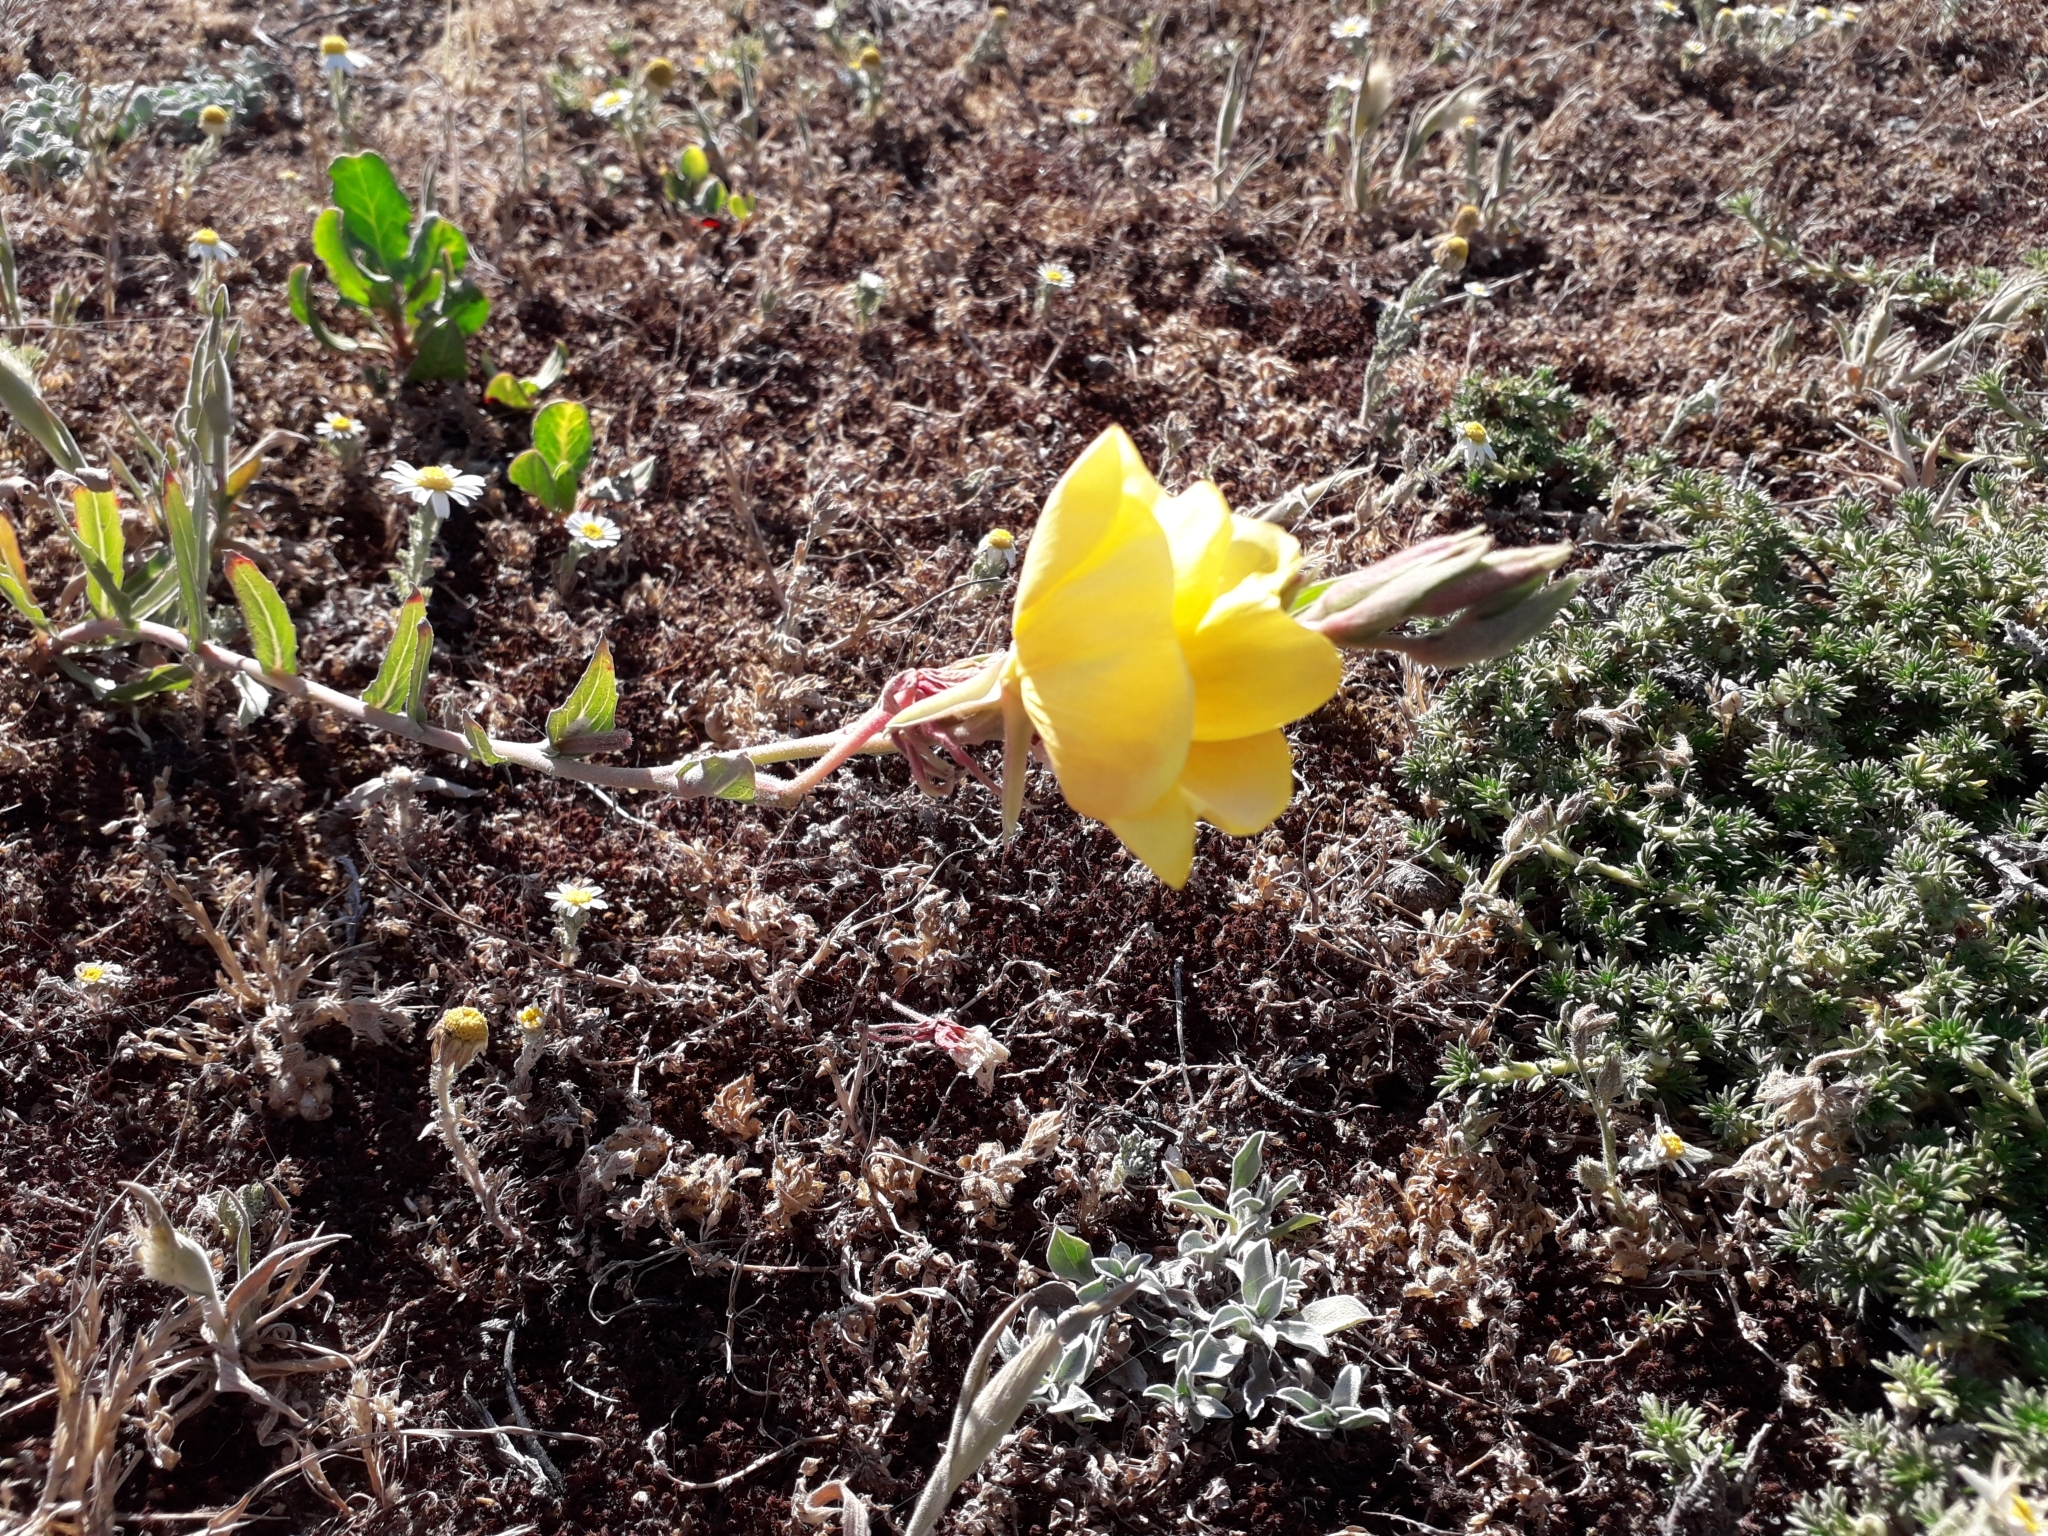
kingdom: Plantae
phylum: Tracheophyta
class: Magnoliopsida
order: Myrtales
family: Onagraceae
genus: Oenothera
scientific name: Oenothera stricta
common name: Fragrant evening-primrose
